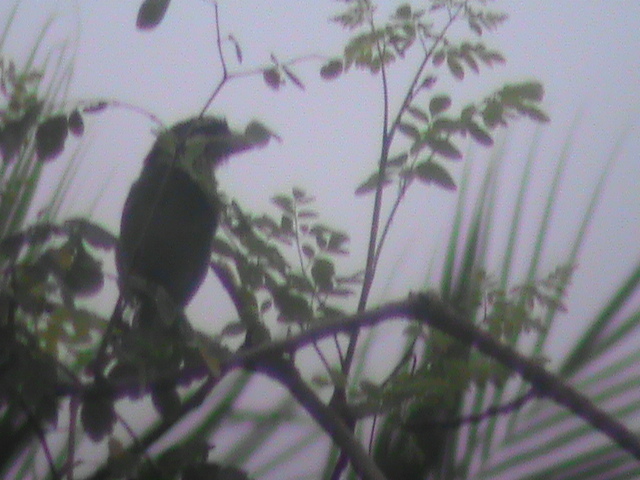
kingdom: Animalia
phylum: Chordata
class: Aves
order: Piciformes
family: Megalaimidae
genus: Psilopogon
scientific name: Psilopogon viridis
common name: White-cheeked barbet
